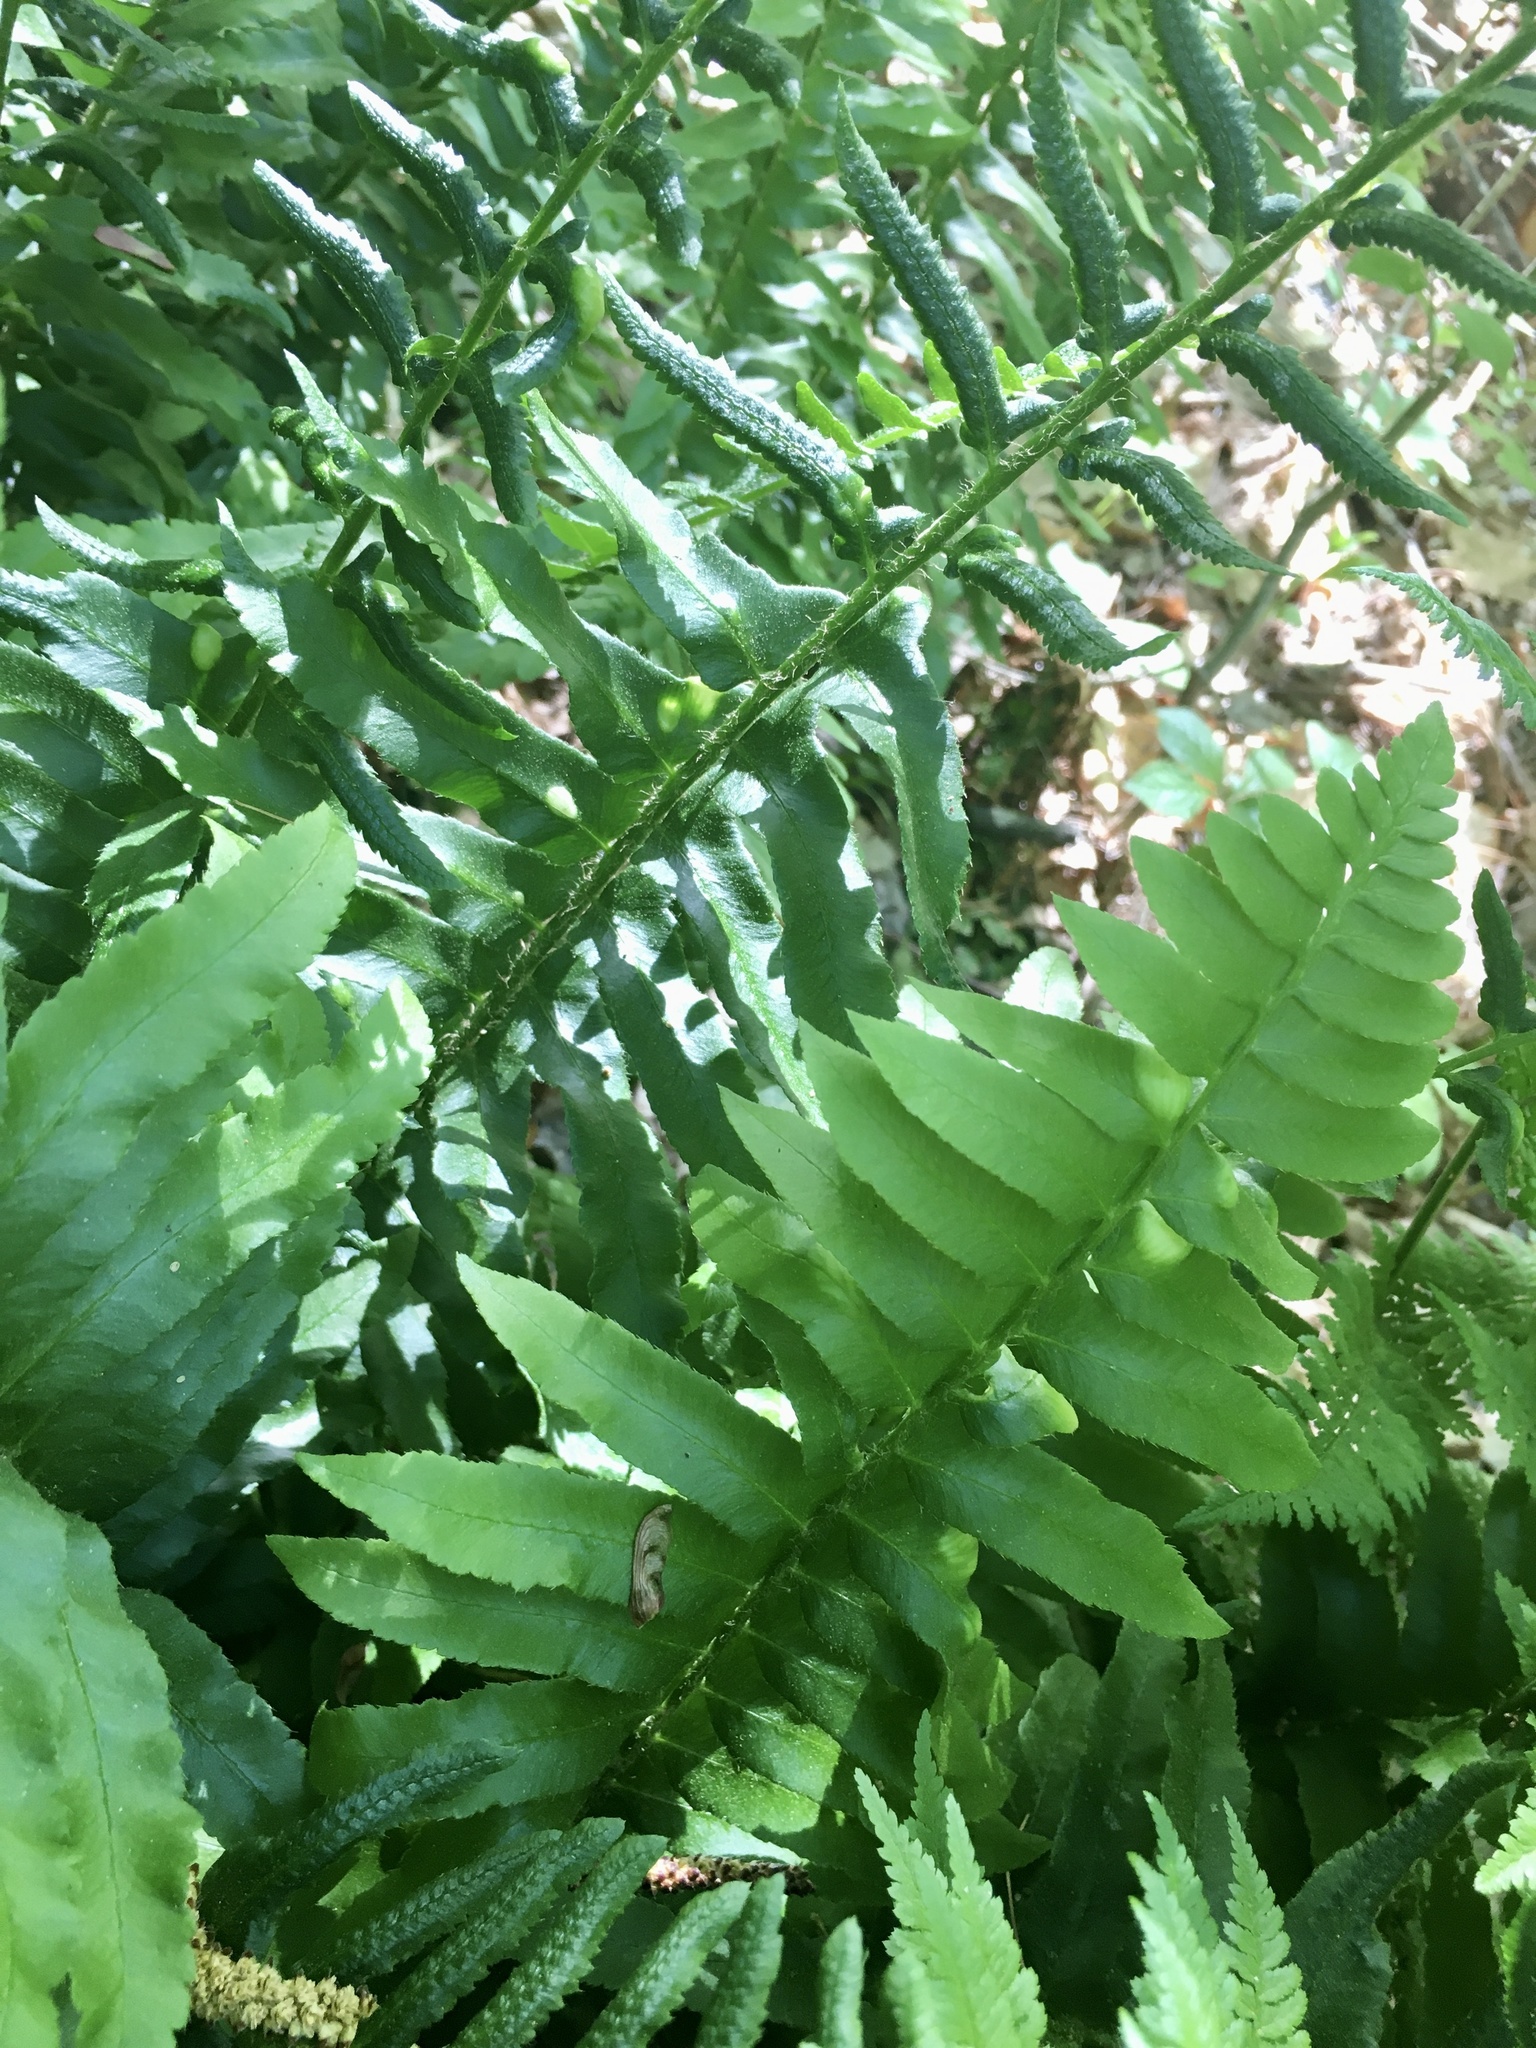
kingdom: Plantae
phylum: Tracheophyta
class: Polypodiopsida
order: Polypodiales
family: Dryopteridaceae
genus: Polystichum
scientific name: Polystichum acrostichoides
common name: Christmas fern
